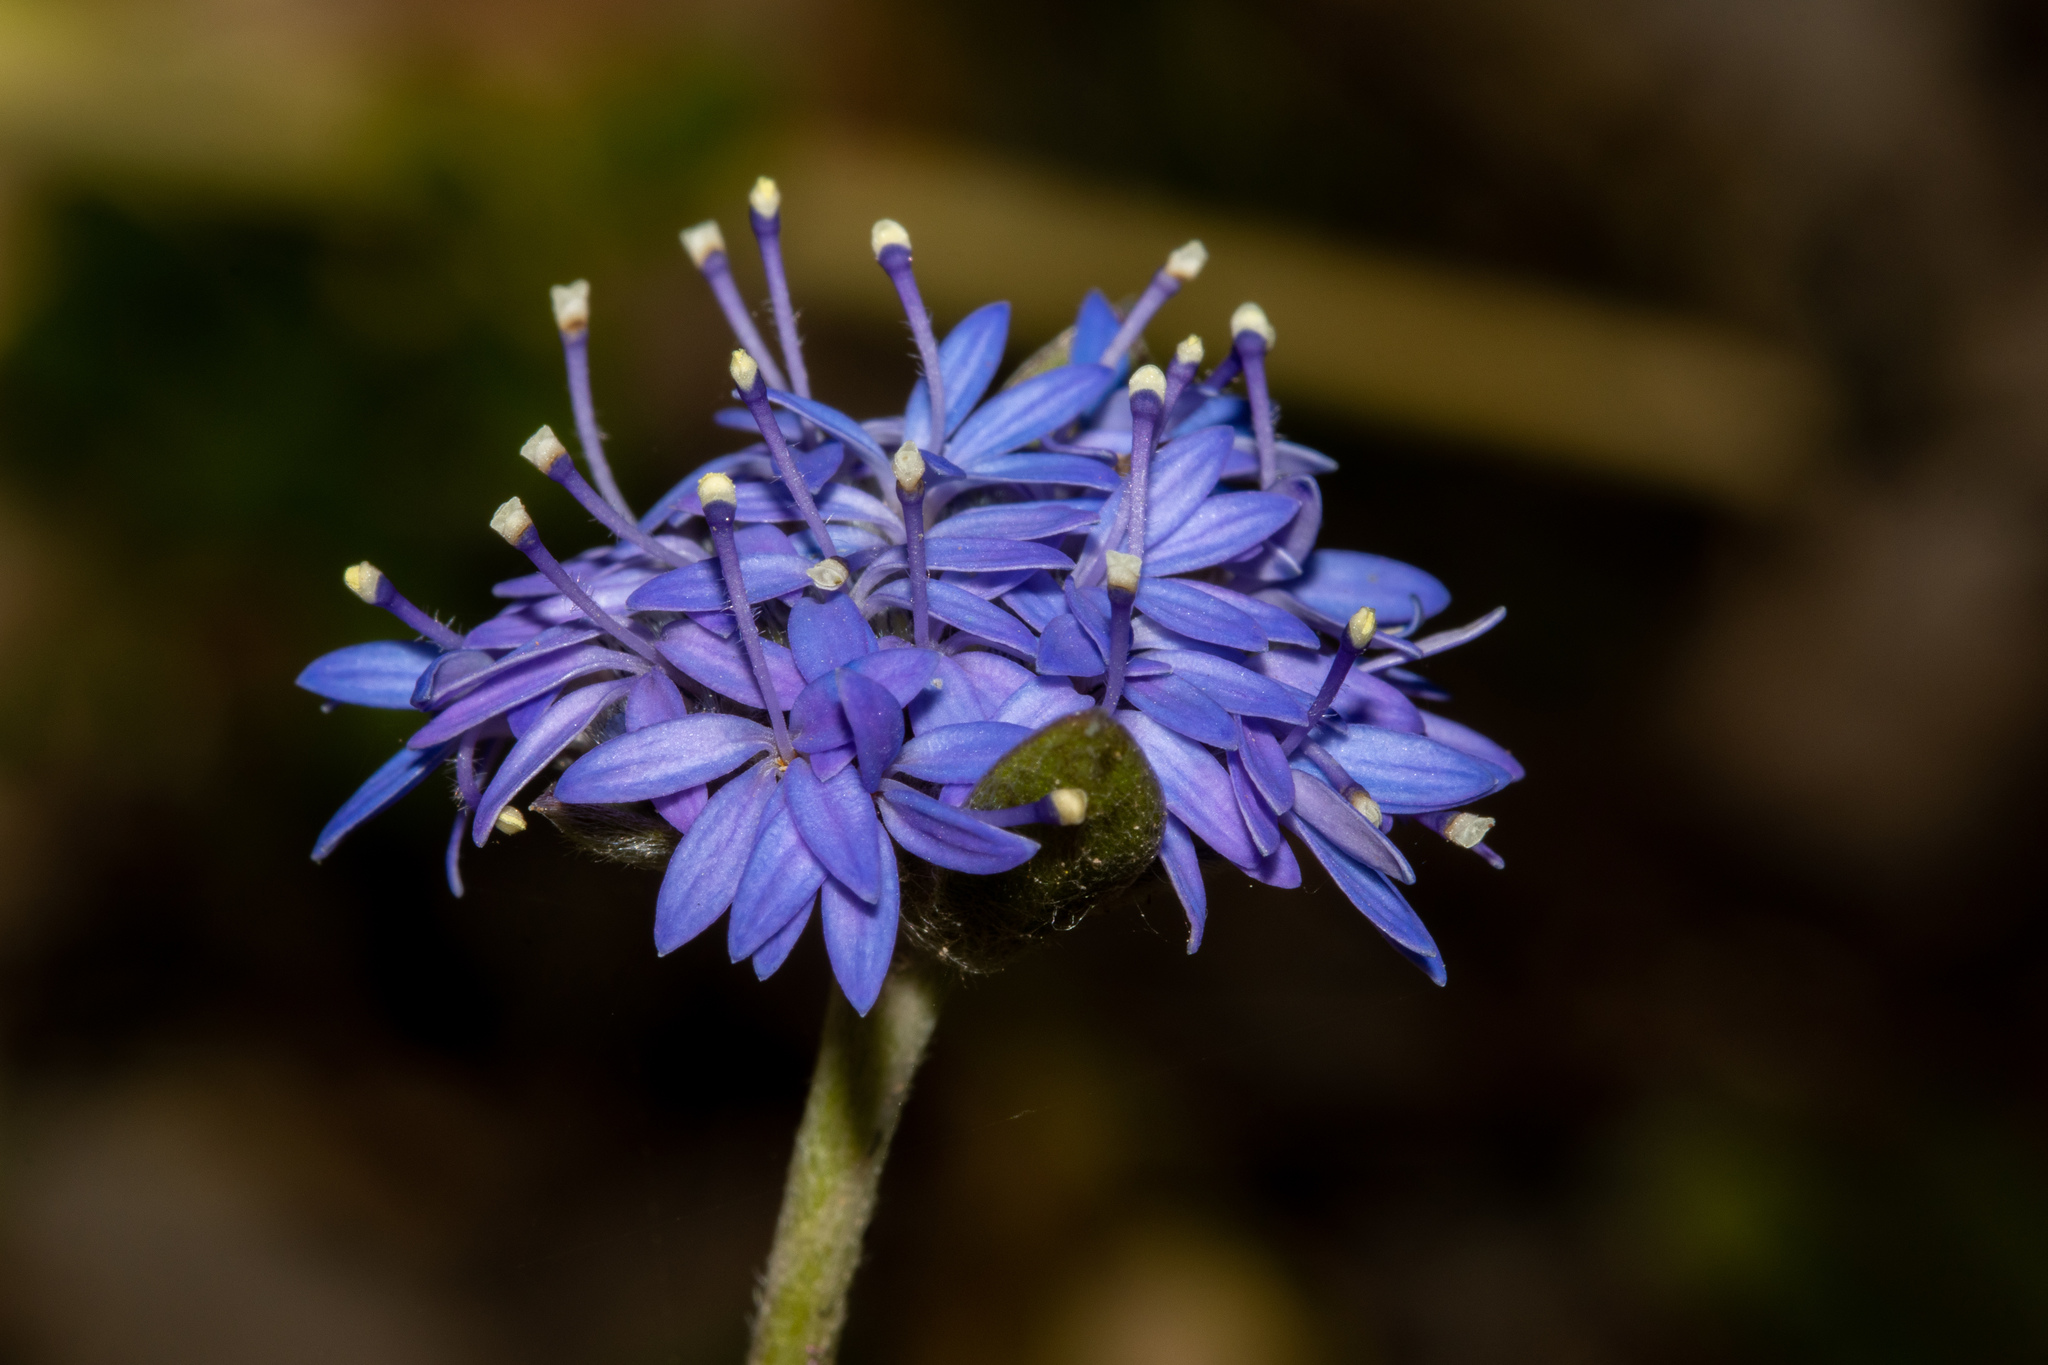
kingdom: Plantae
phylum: Tracheophyta
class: Magnoliopsida
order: Asterales
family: Goodeniaceae
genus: Brunonia
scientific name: Brunonia australis
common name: Blue pincushion
